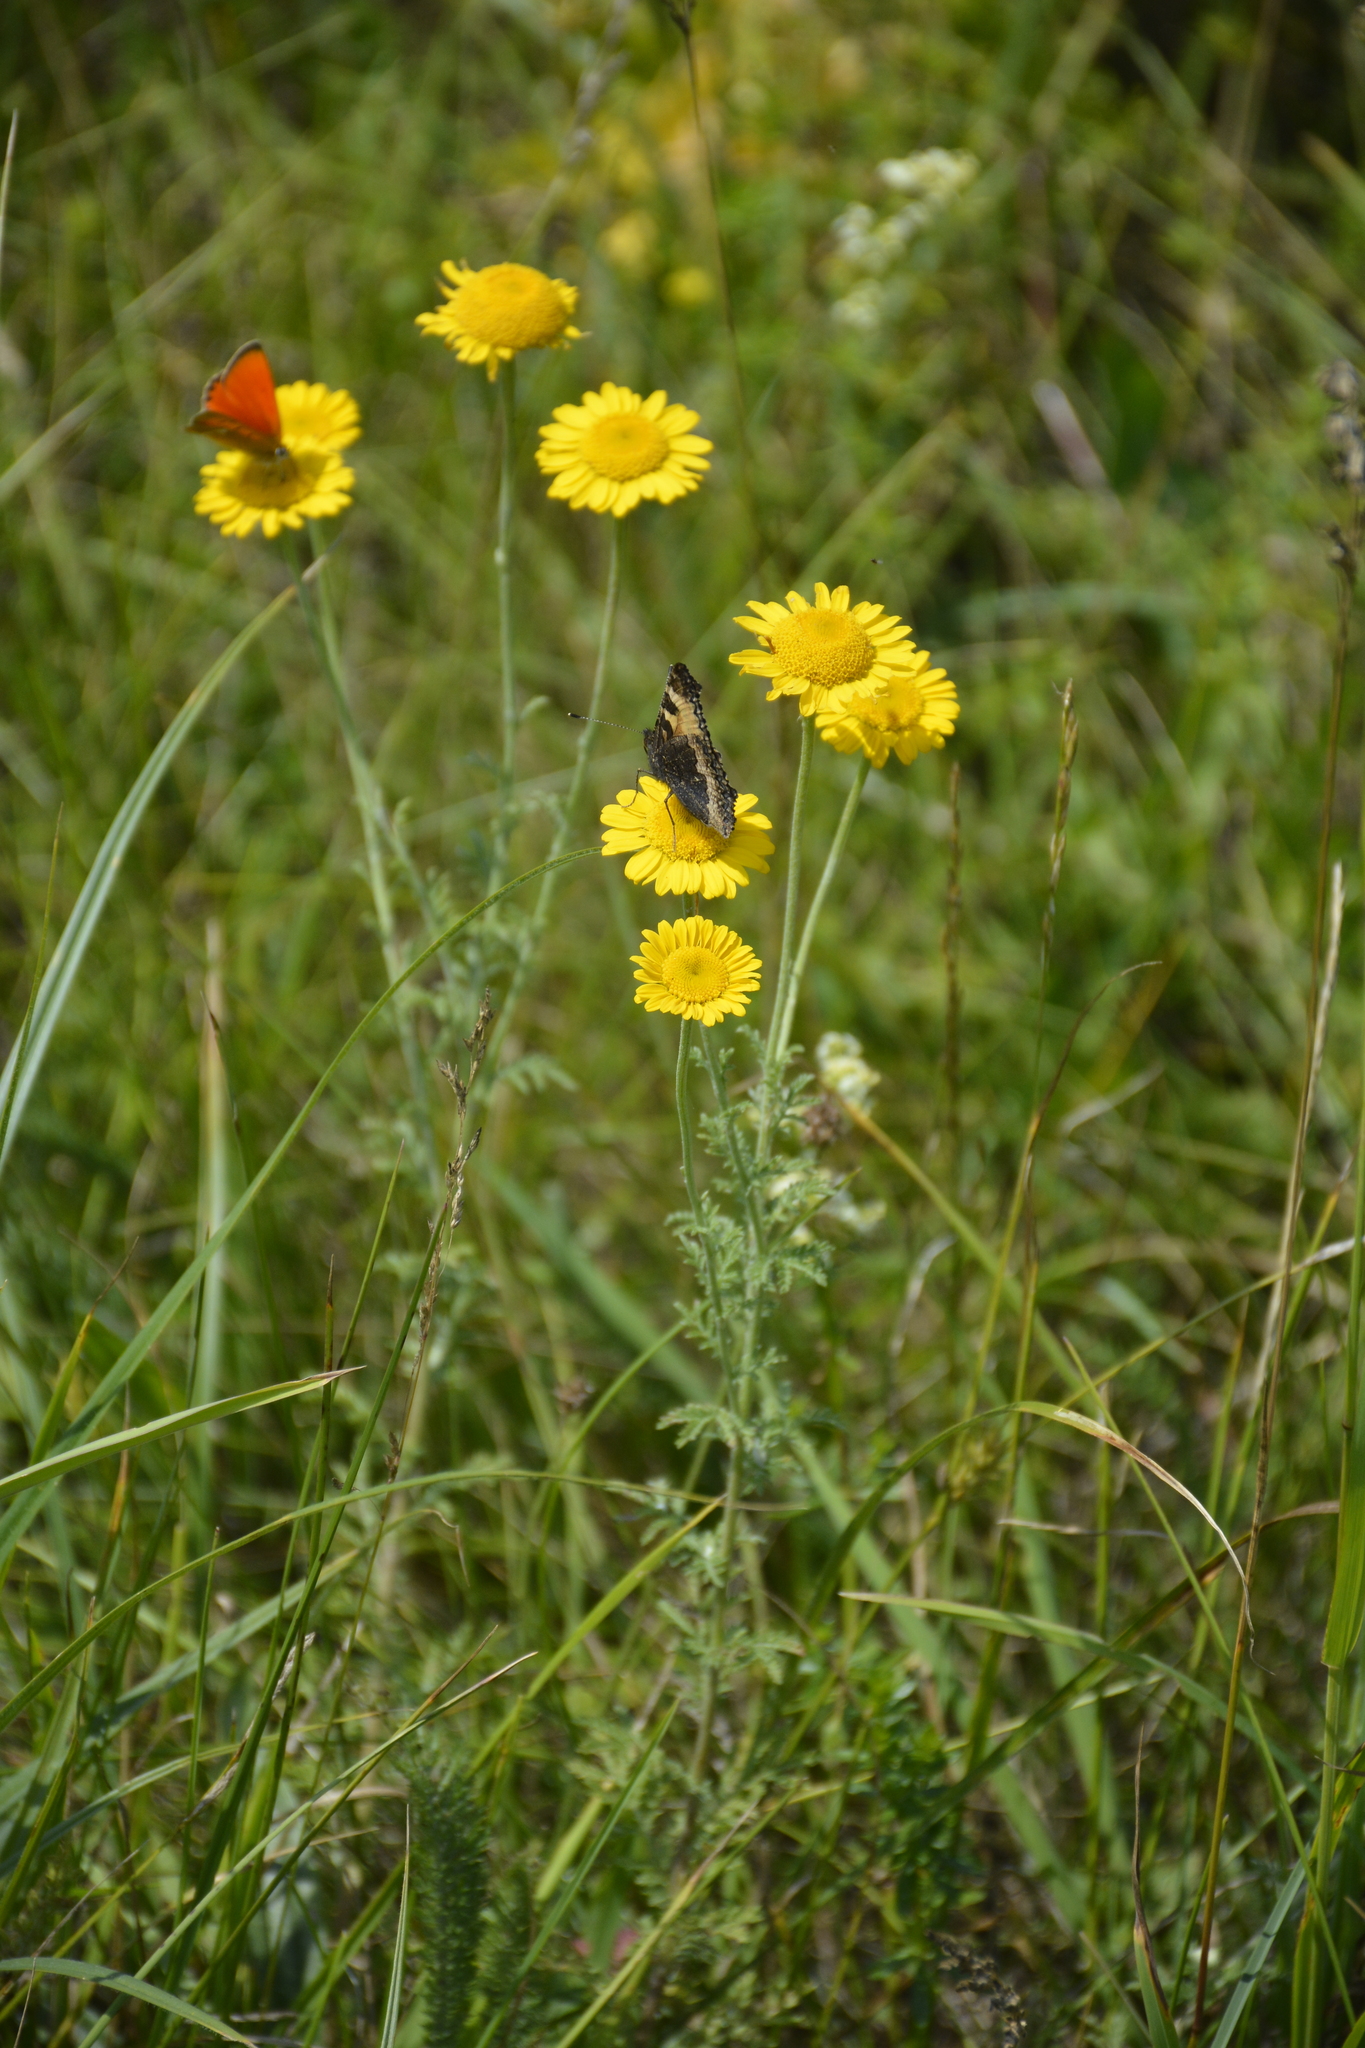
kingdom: Plantae
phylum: Tracheophyta
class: Magnoliopsida
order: Asterales
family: Asteraceae
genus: Cota
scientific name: Cota tinctoria
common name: Golden chamomile
